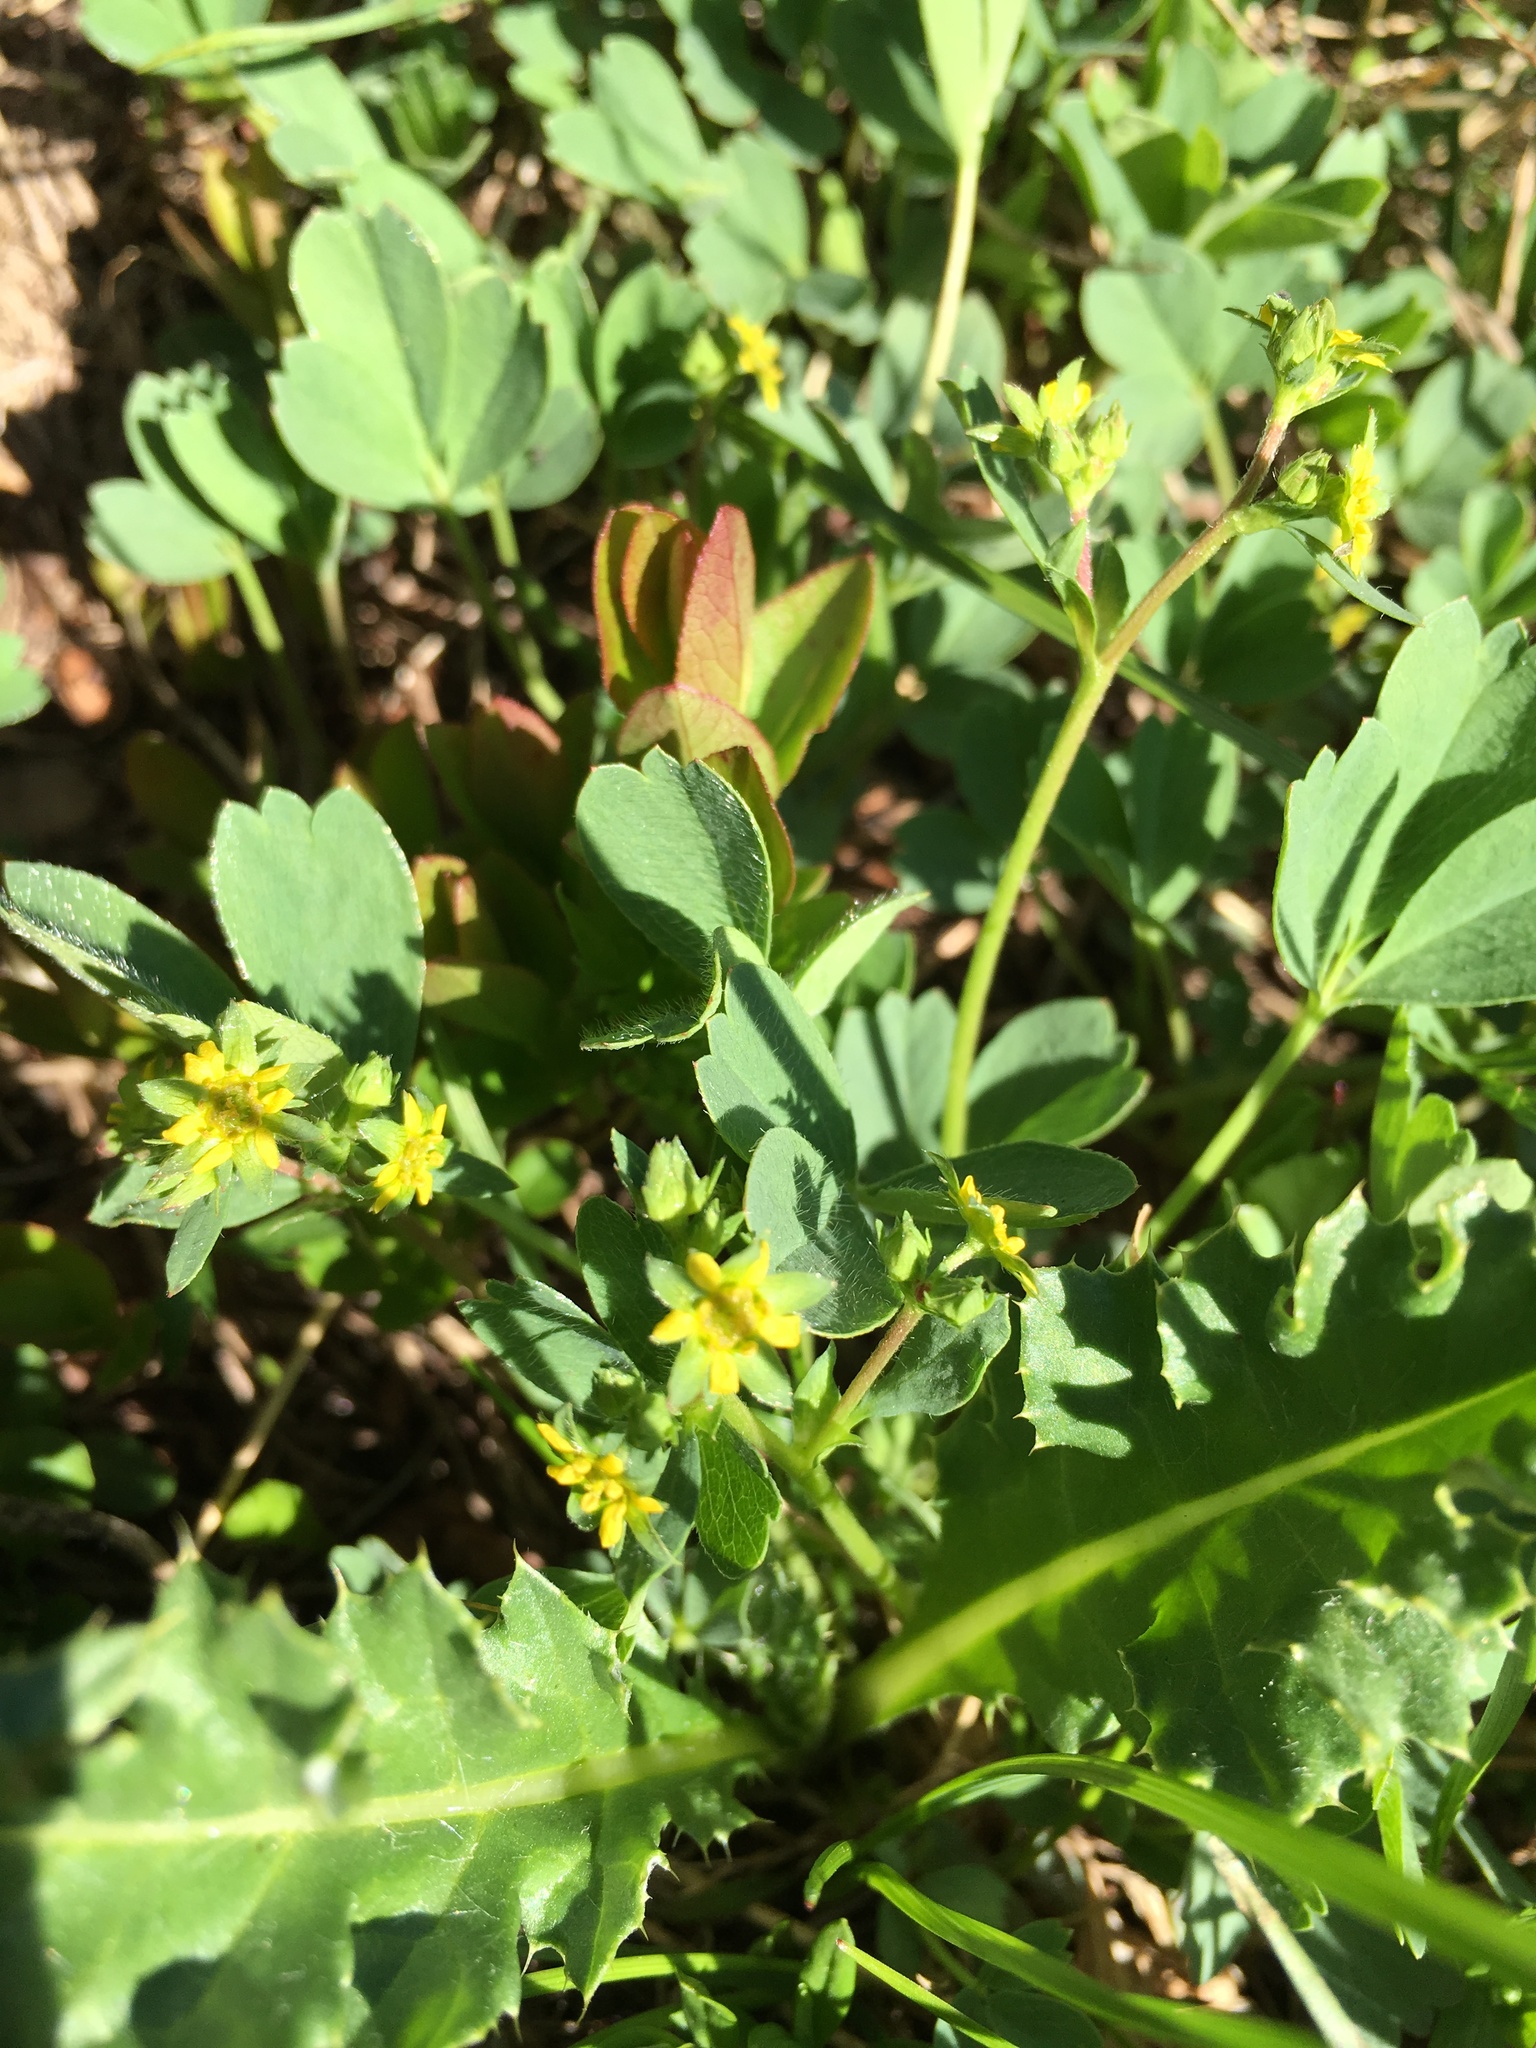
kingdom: Plantae
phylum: Tracheophyta
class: Magnoliopsida
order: Rosales
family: Rosaceae
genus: Sibbaldia
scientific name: Sibbaldia procumbens
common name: Creeping sibbaldia
